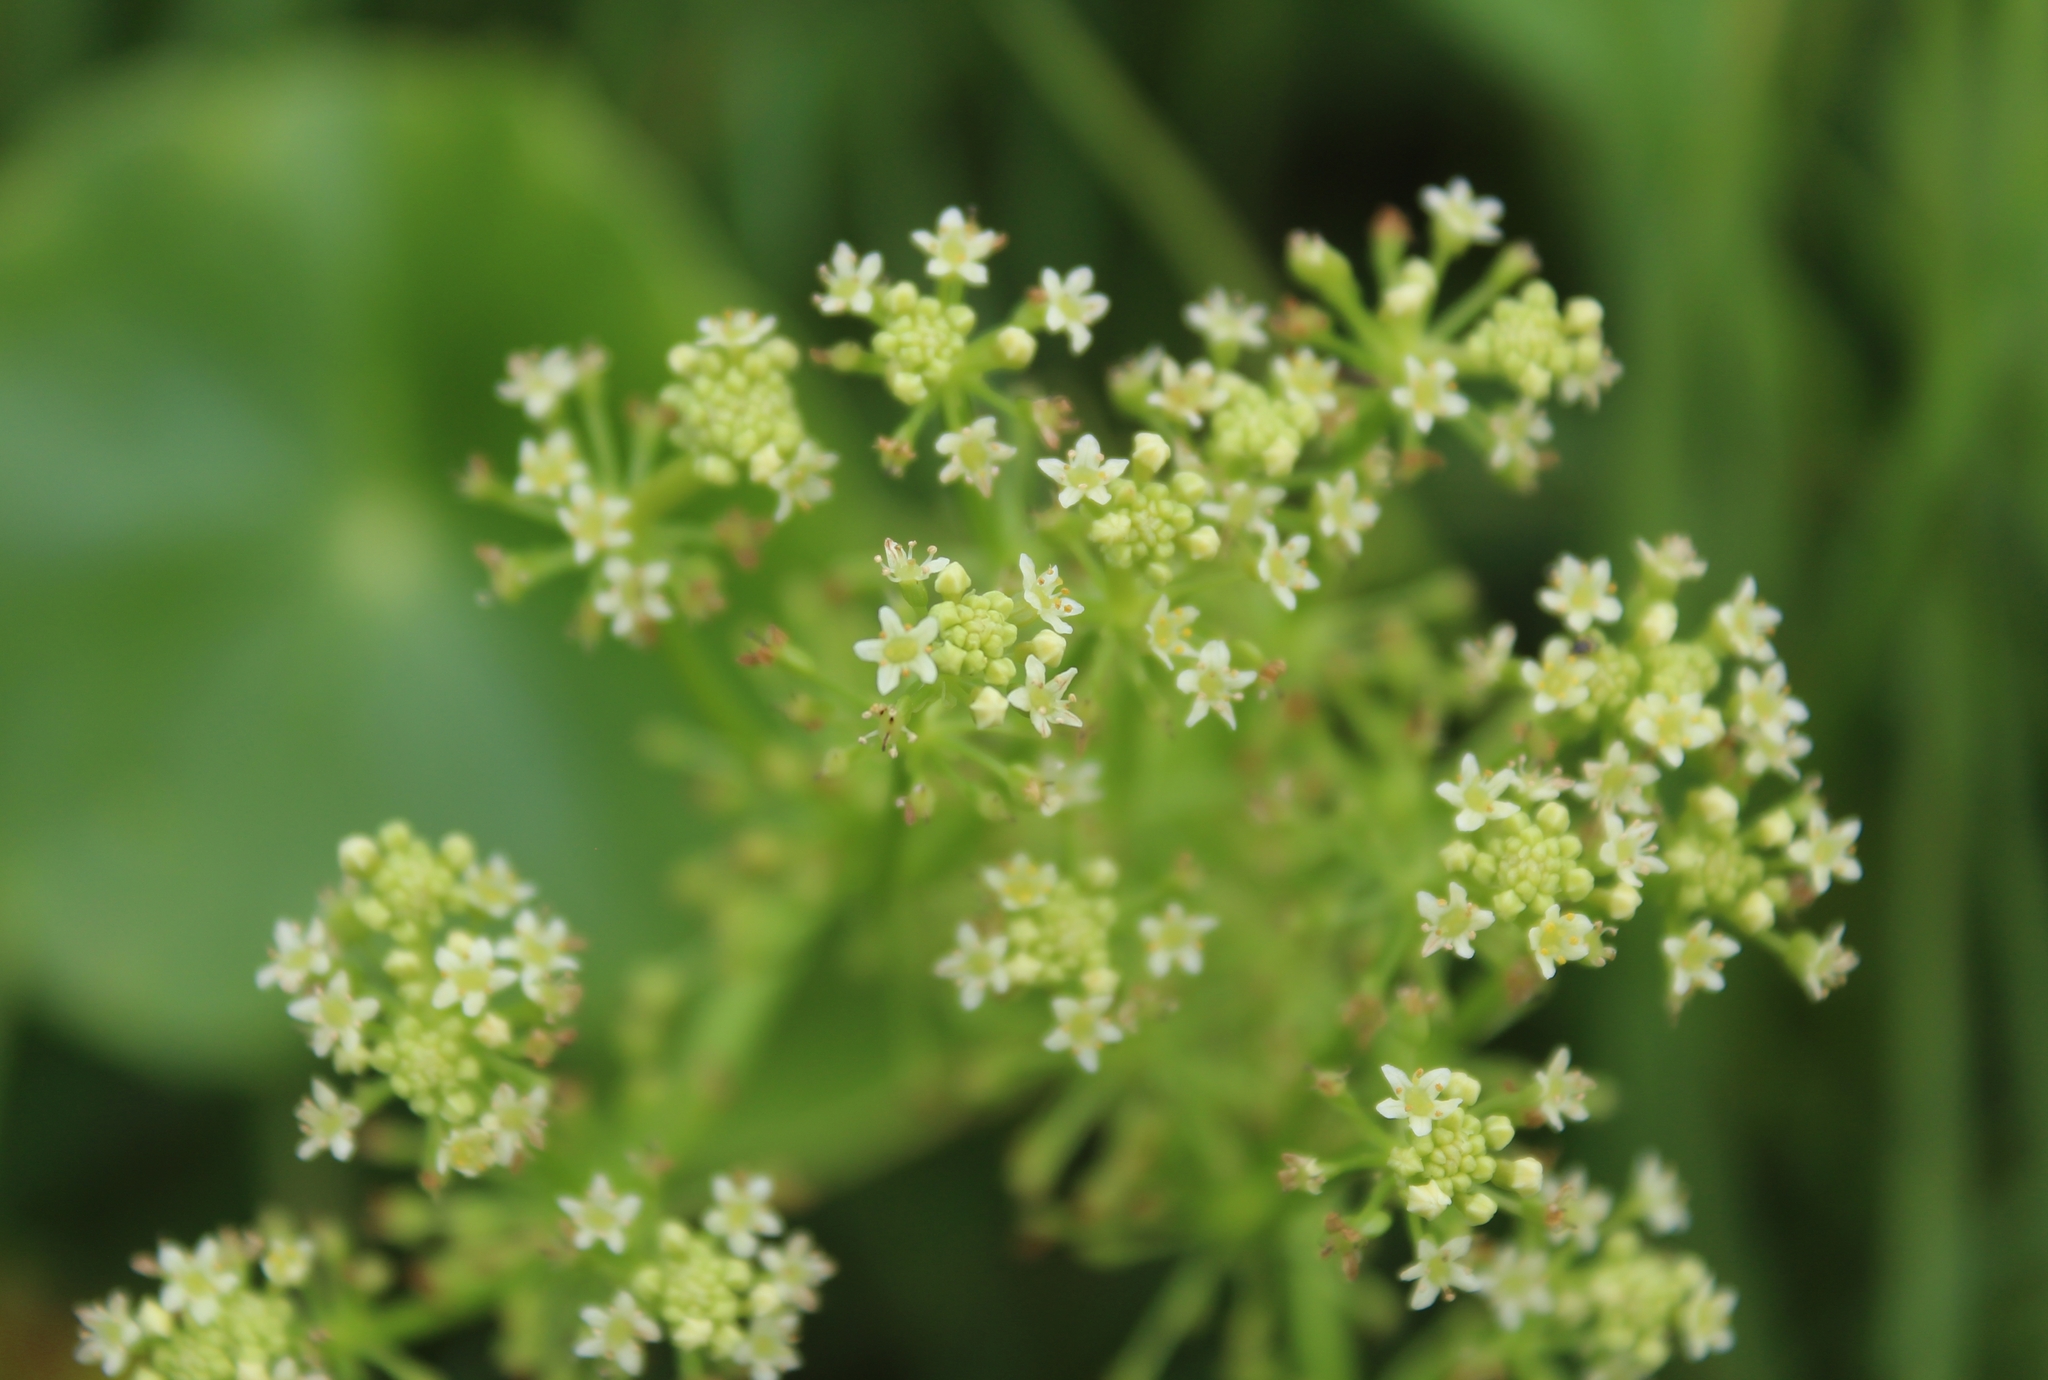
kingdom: Plantae
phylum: Tracheophyta
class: Magnoliopsida
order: Apiales
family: Araliaceae
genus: Hydrocotyle
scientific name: Hydrocotyle bonariensis
